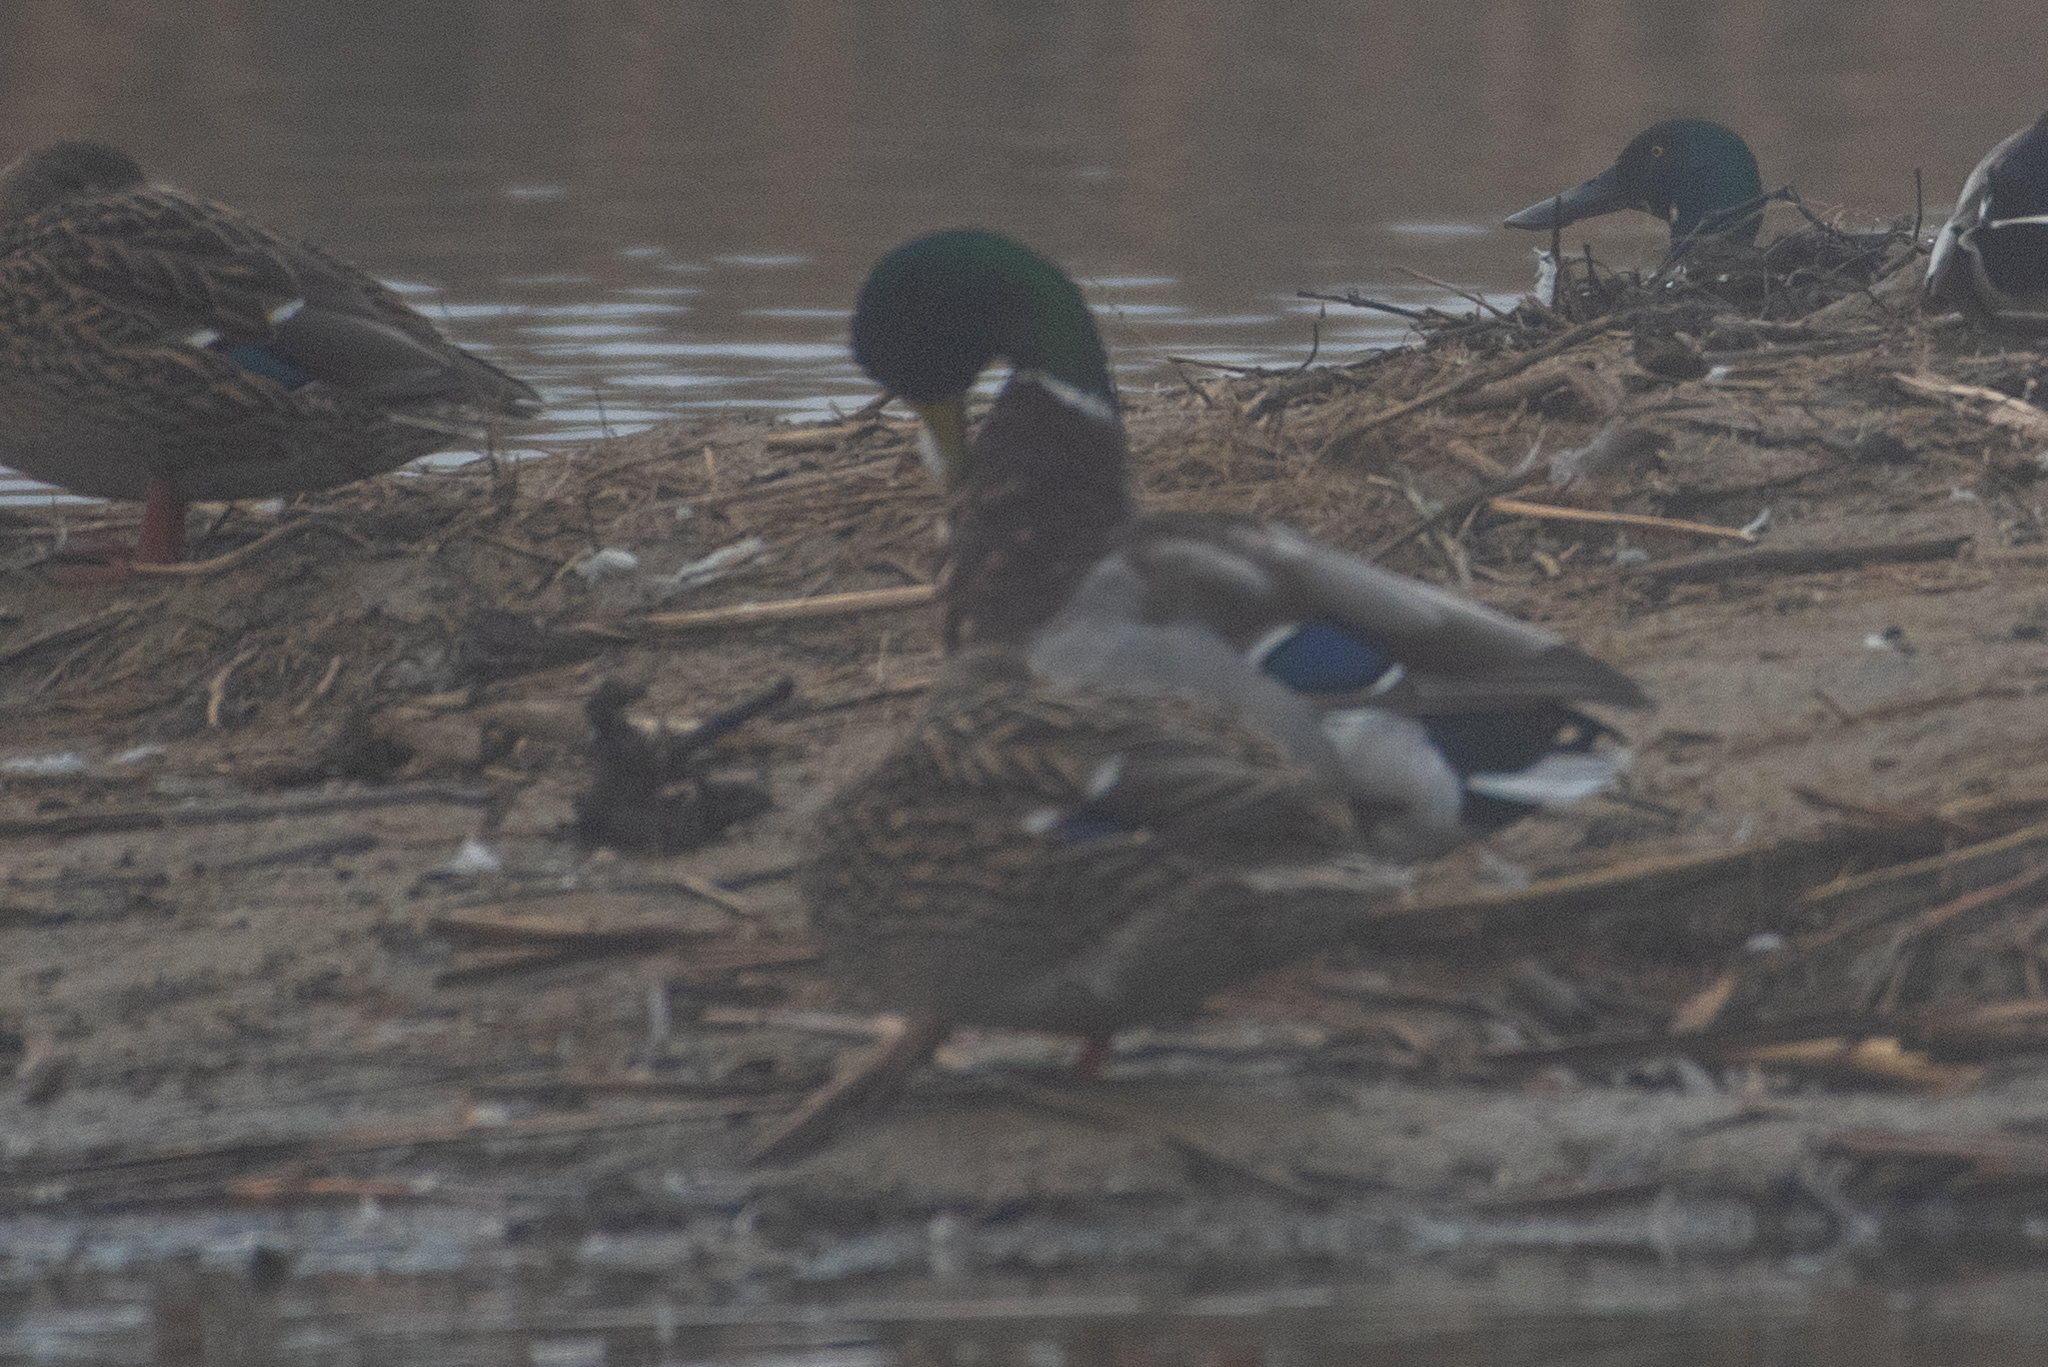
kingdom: Animalia
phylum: Chordata
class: Aves
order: Anseriformes
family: Anatidae
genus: Anas
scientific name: Anas platyrhynchos
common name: Mallard
